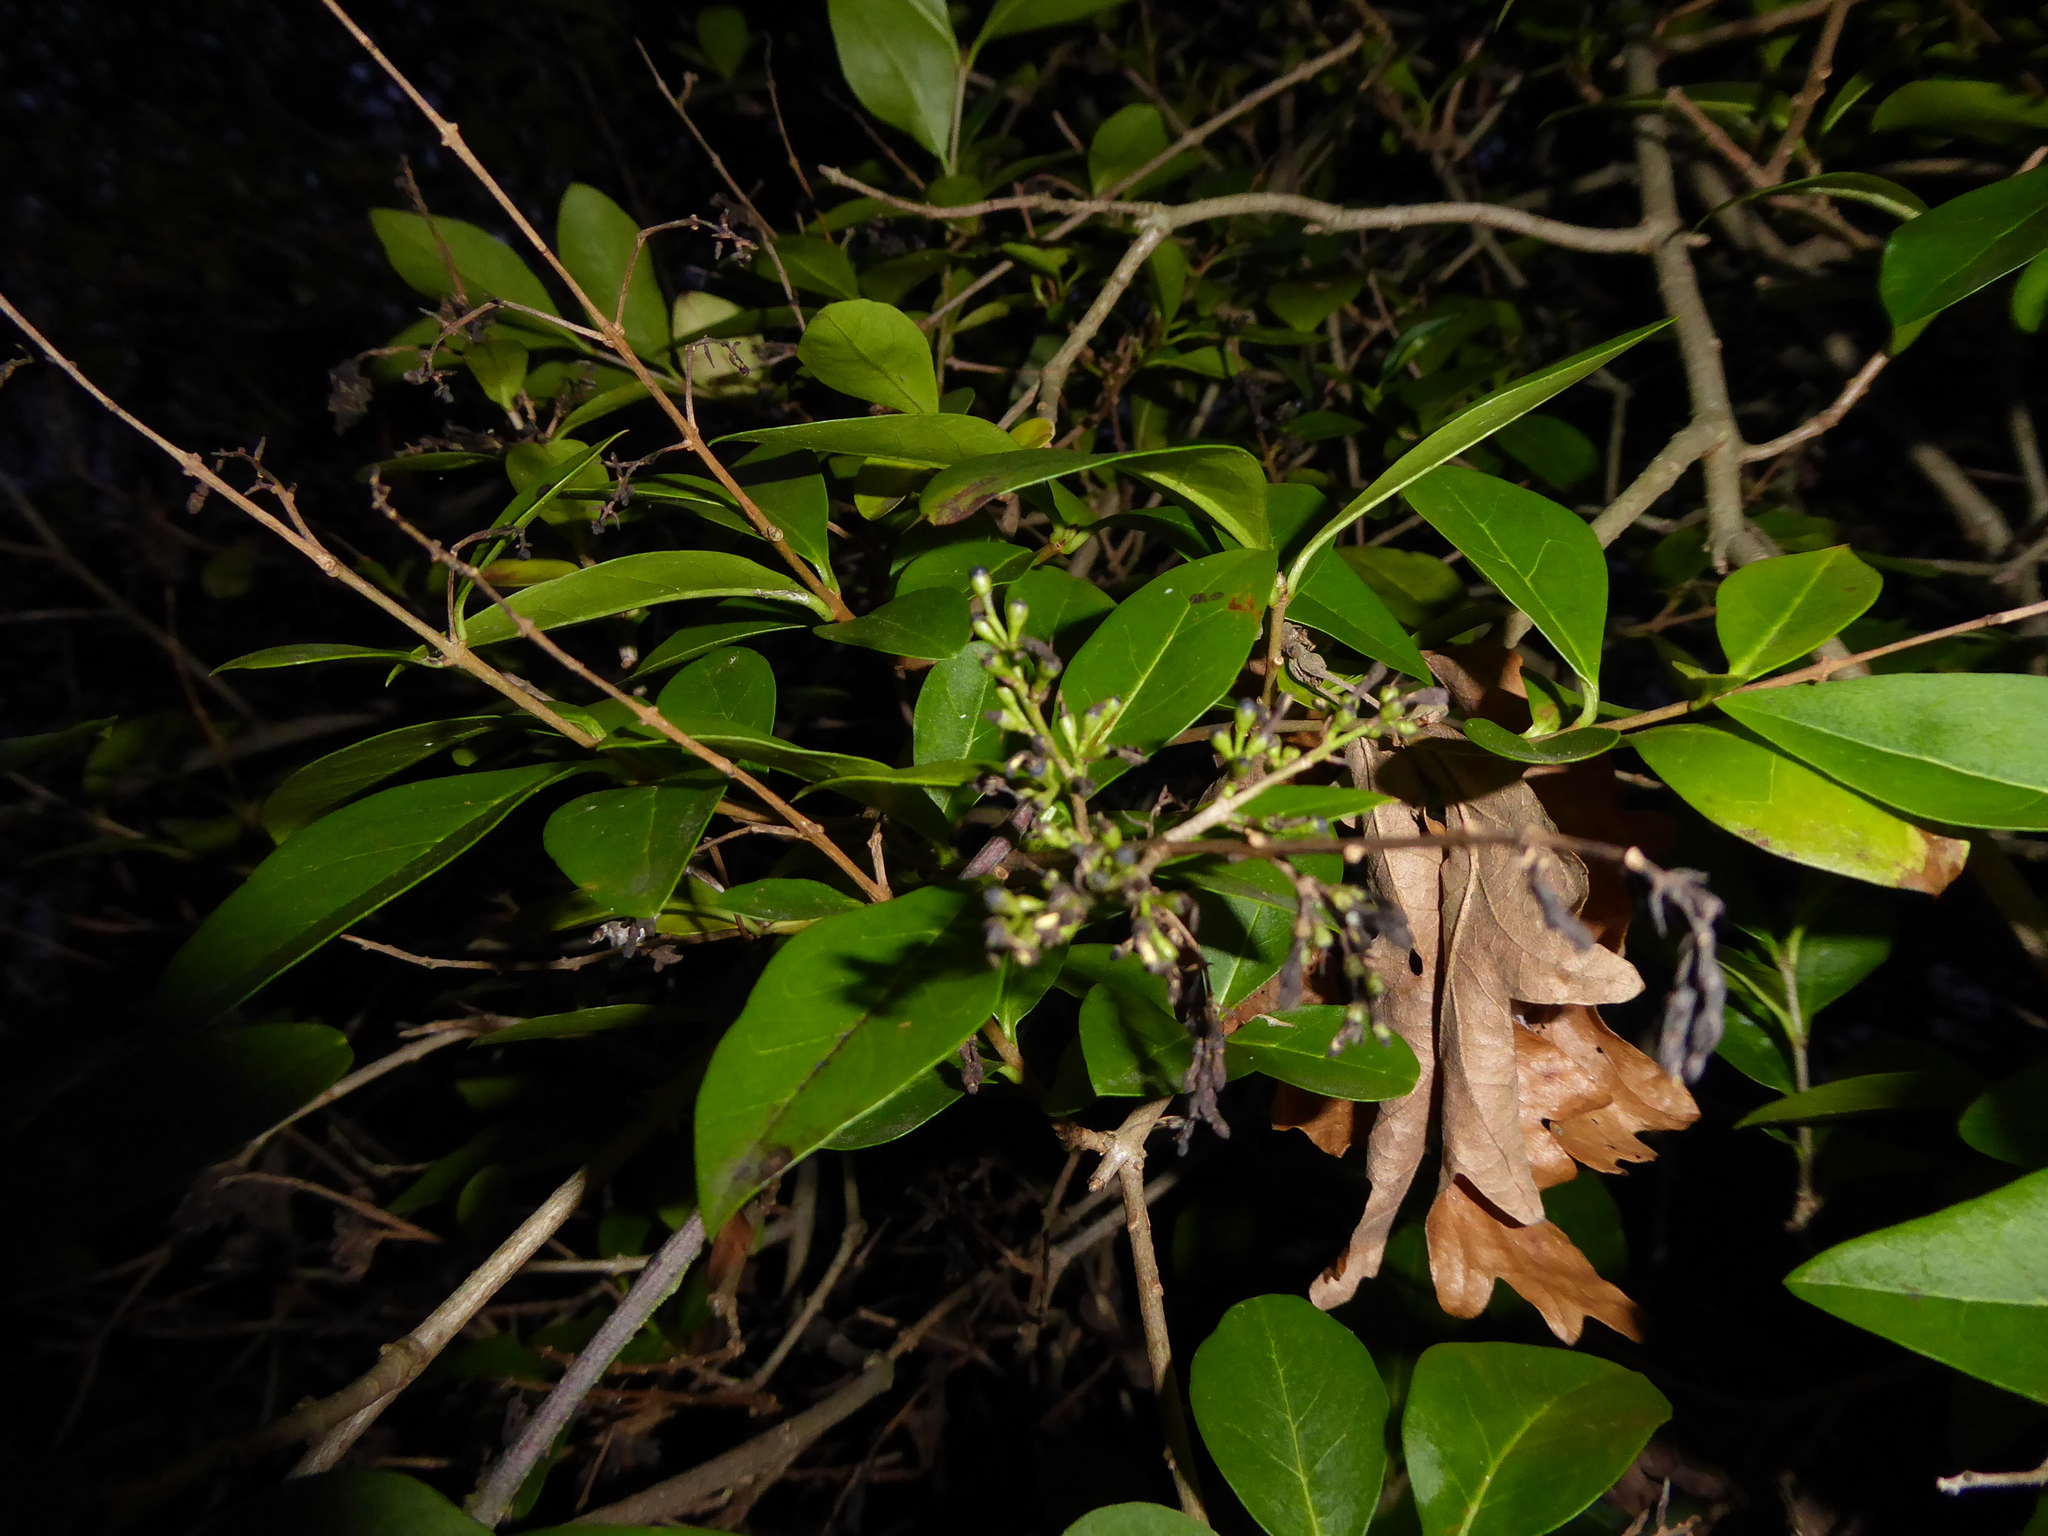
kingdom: Plantae
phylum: Tracheophyta
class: Magnoliopsida
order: Lamiales
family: Oleaceae
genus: Ligustrum
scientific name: Ligustrum ovalifolium
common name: California privet
